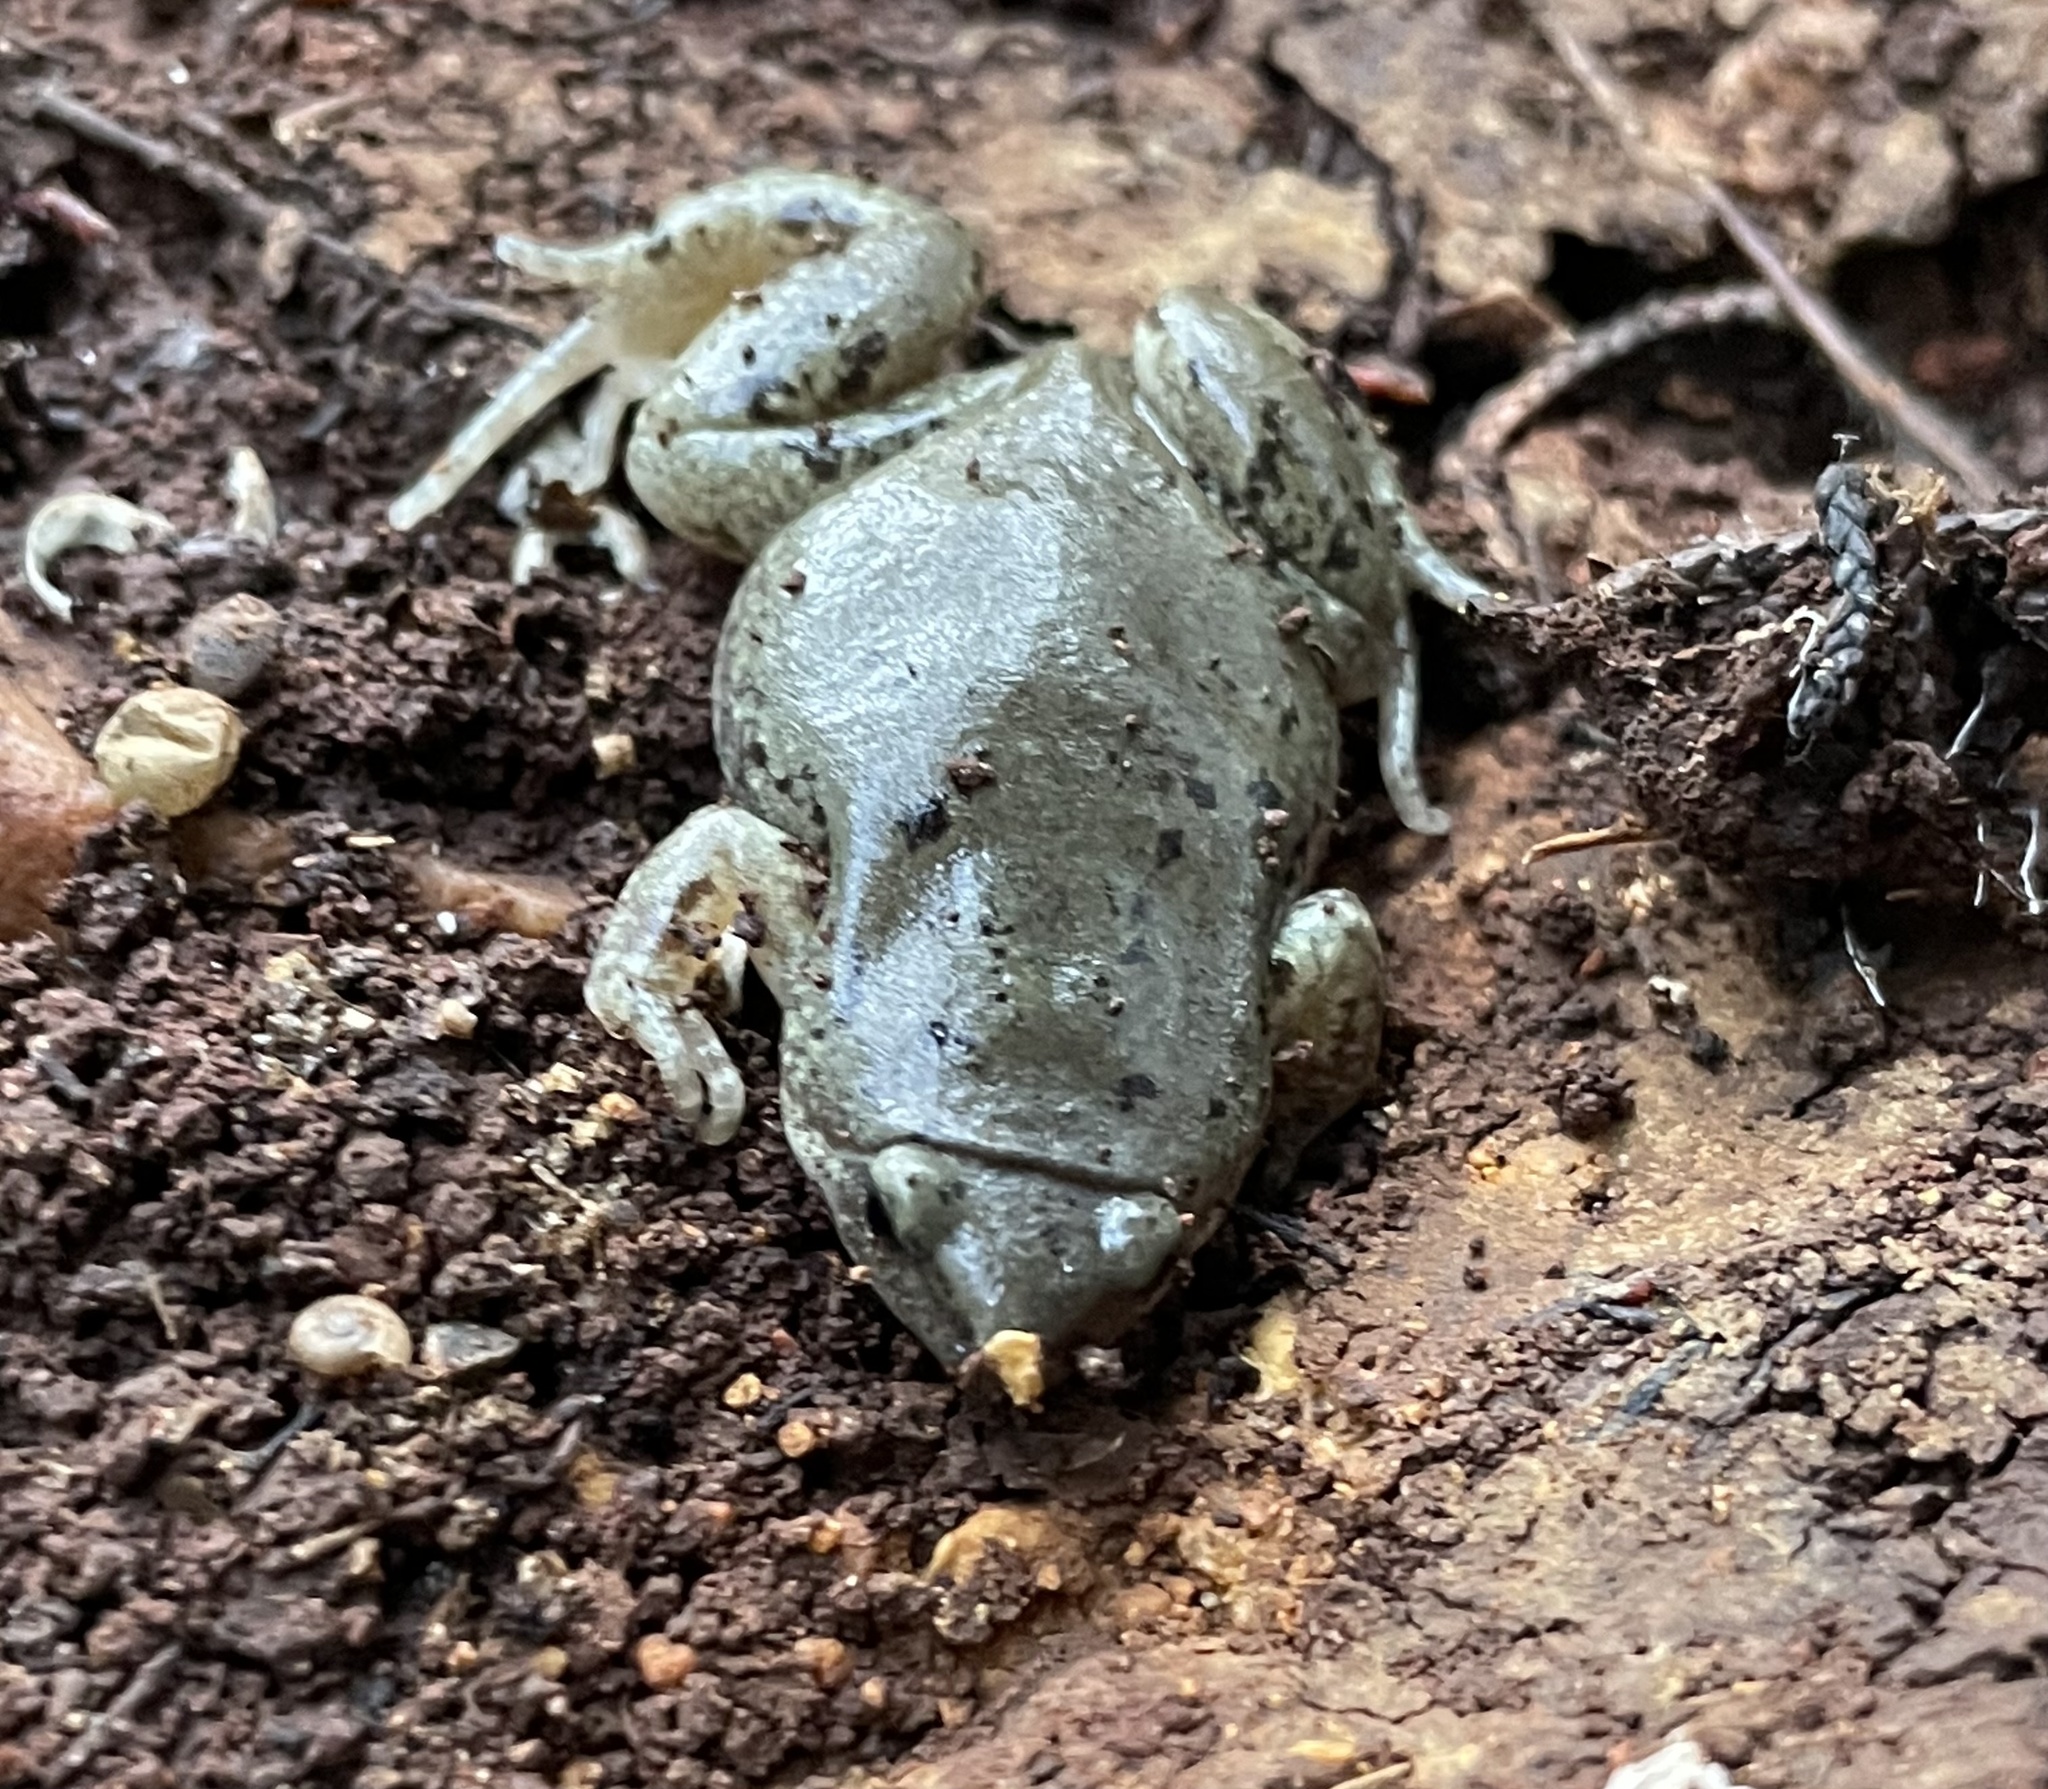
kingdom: Animalia
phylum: Chordata
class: Amphibia
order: Anura
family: Microhylidae
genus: Gastrophryne
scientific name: Gastrophryne olivacea
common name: Great plains narrow-mouthed toad
